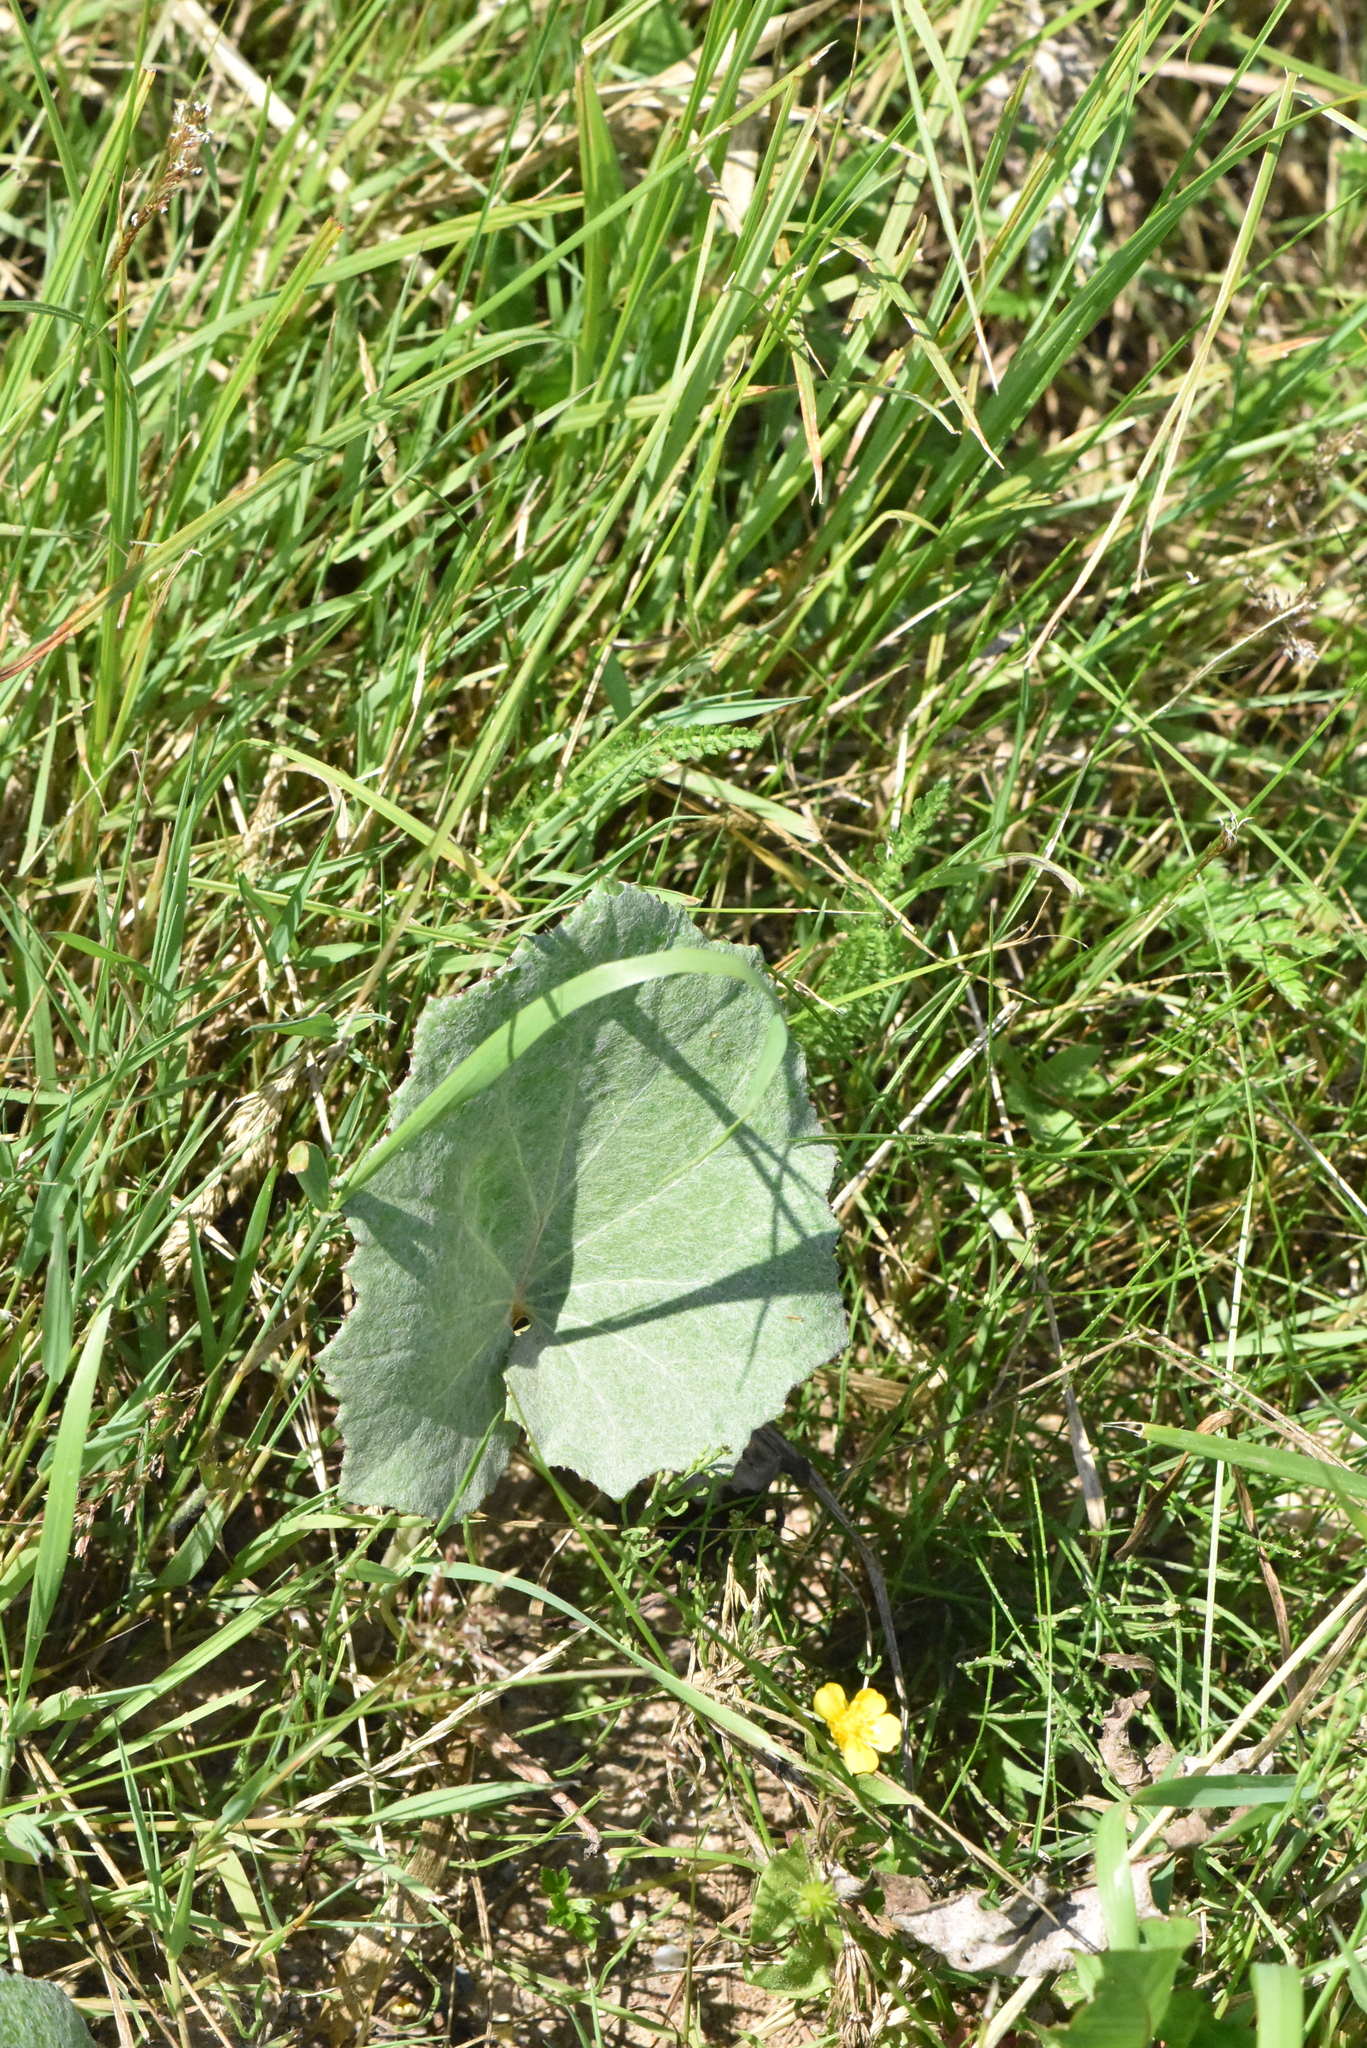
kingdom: Plantae
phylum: Tracheophyta
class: Magnoliopsida
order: Asterales
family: Asteraceae
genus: Tussilago
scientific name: Tussilago farfara
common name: Coltsfoot
